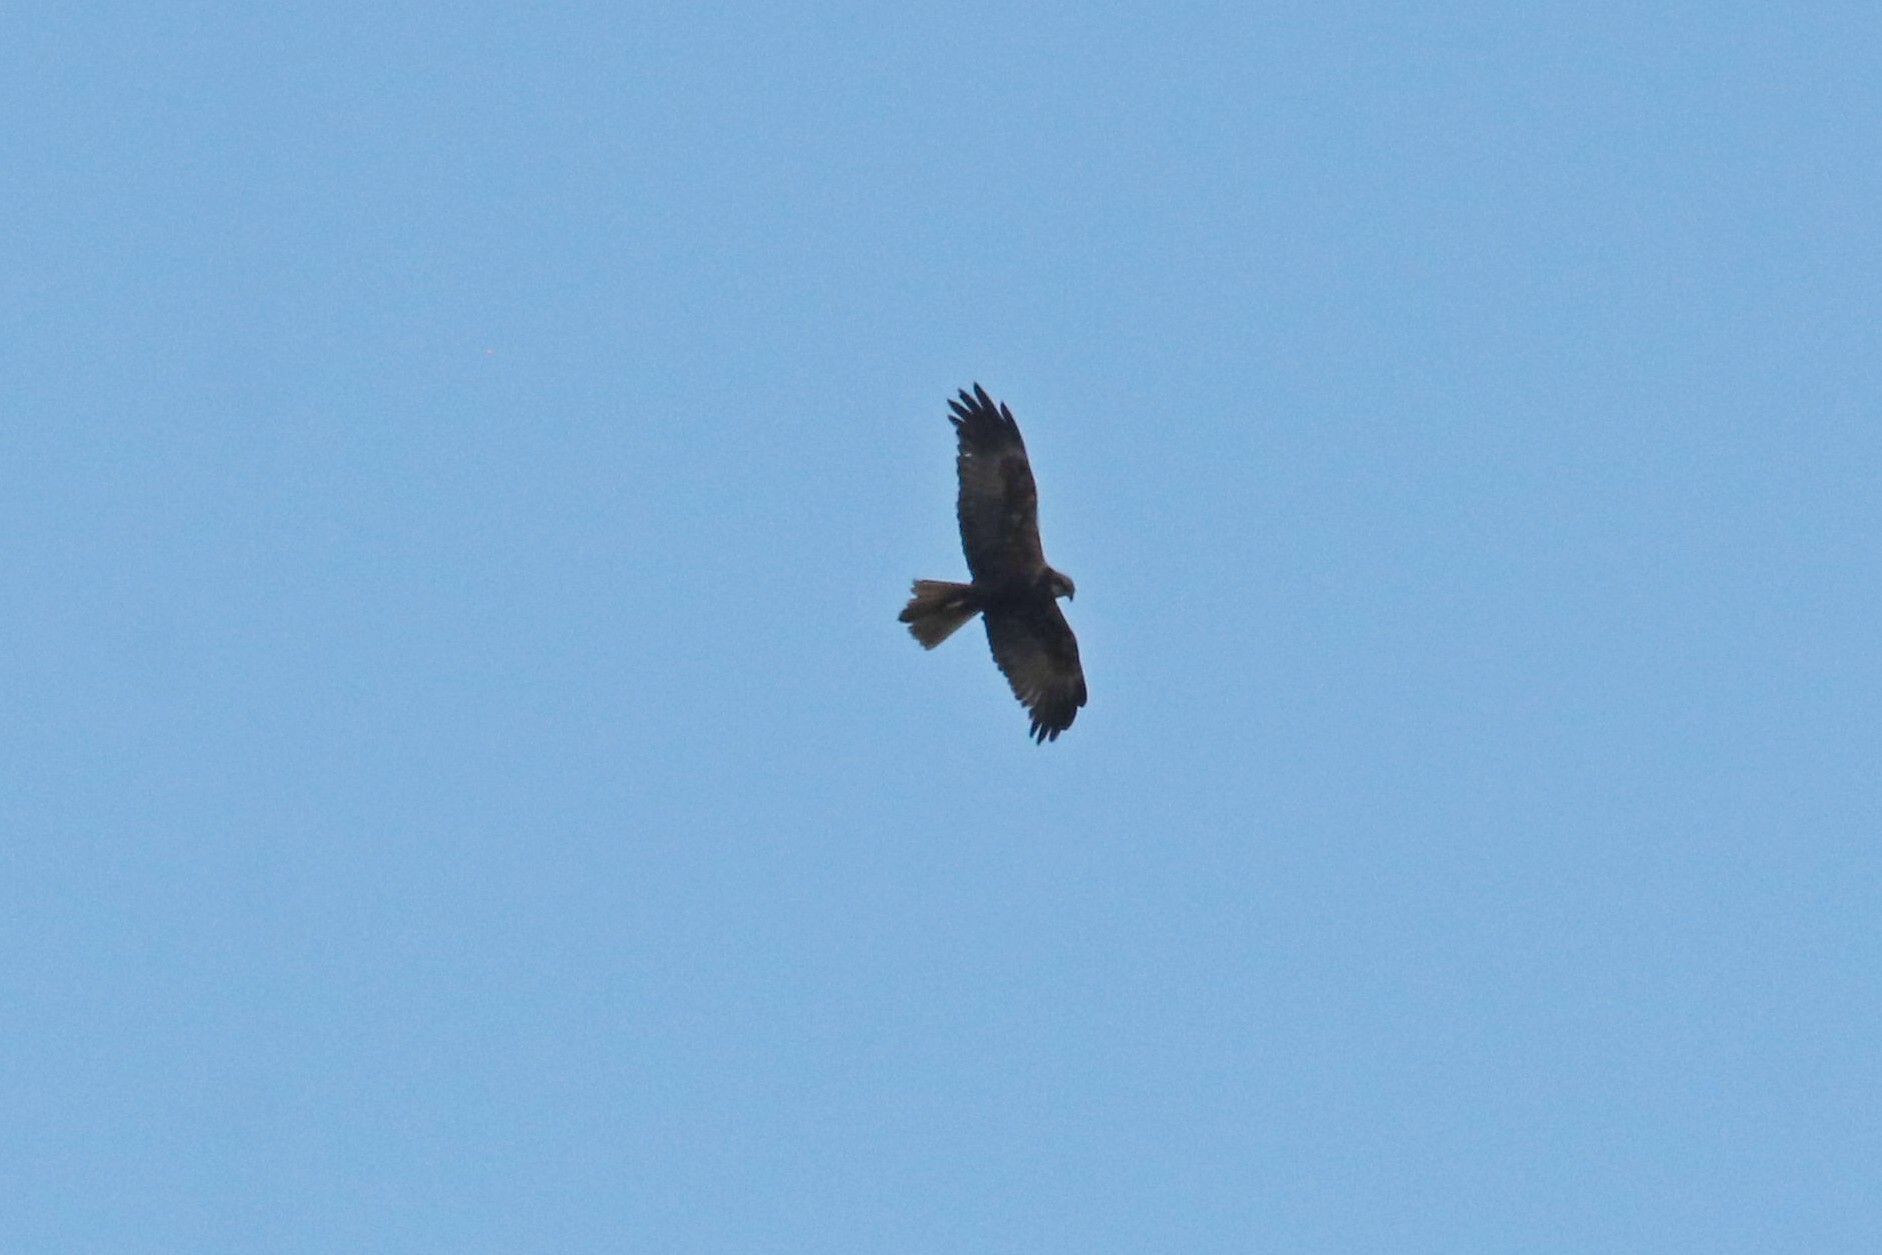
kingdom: Animalia
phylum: Chordata
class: Aves
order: Accipitriformes
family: Accipitridae
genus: Circus
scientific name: Circus aeruginosus
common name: Western marsh harrier
